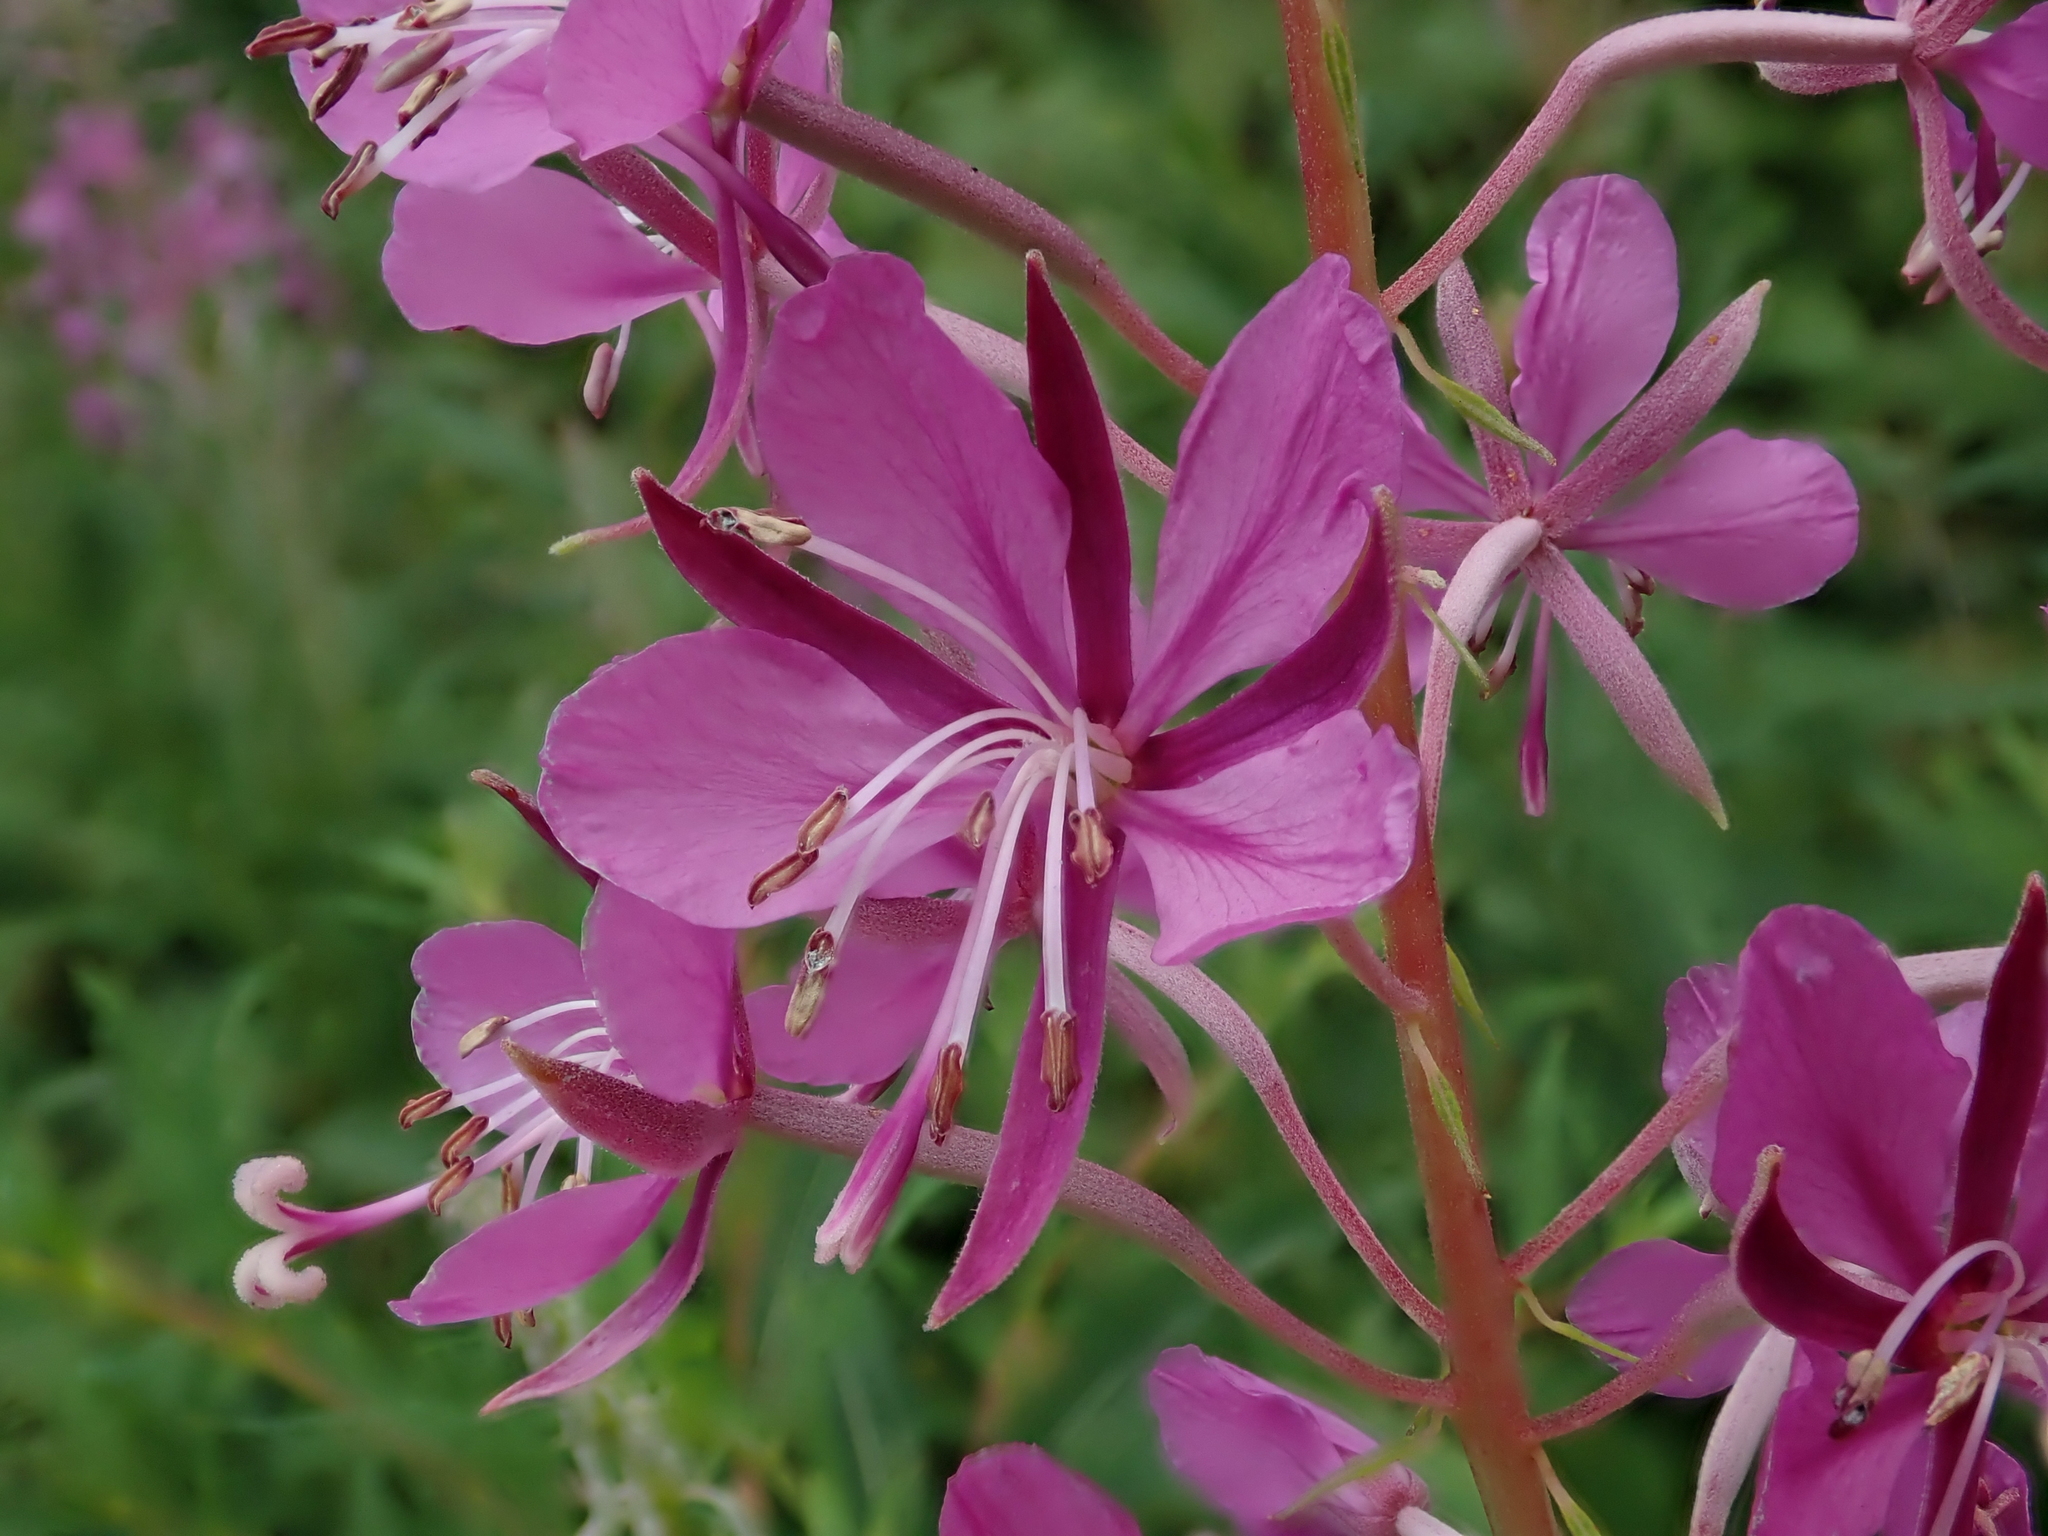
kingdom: Plantae
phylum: Tracheophyta
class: Magnoliopsida
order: Myrtales
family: Onagraceae
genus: Chamaenerion
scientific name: Chamaenerion angustifolium
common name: Fireweed
